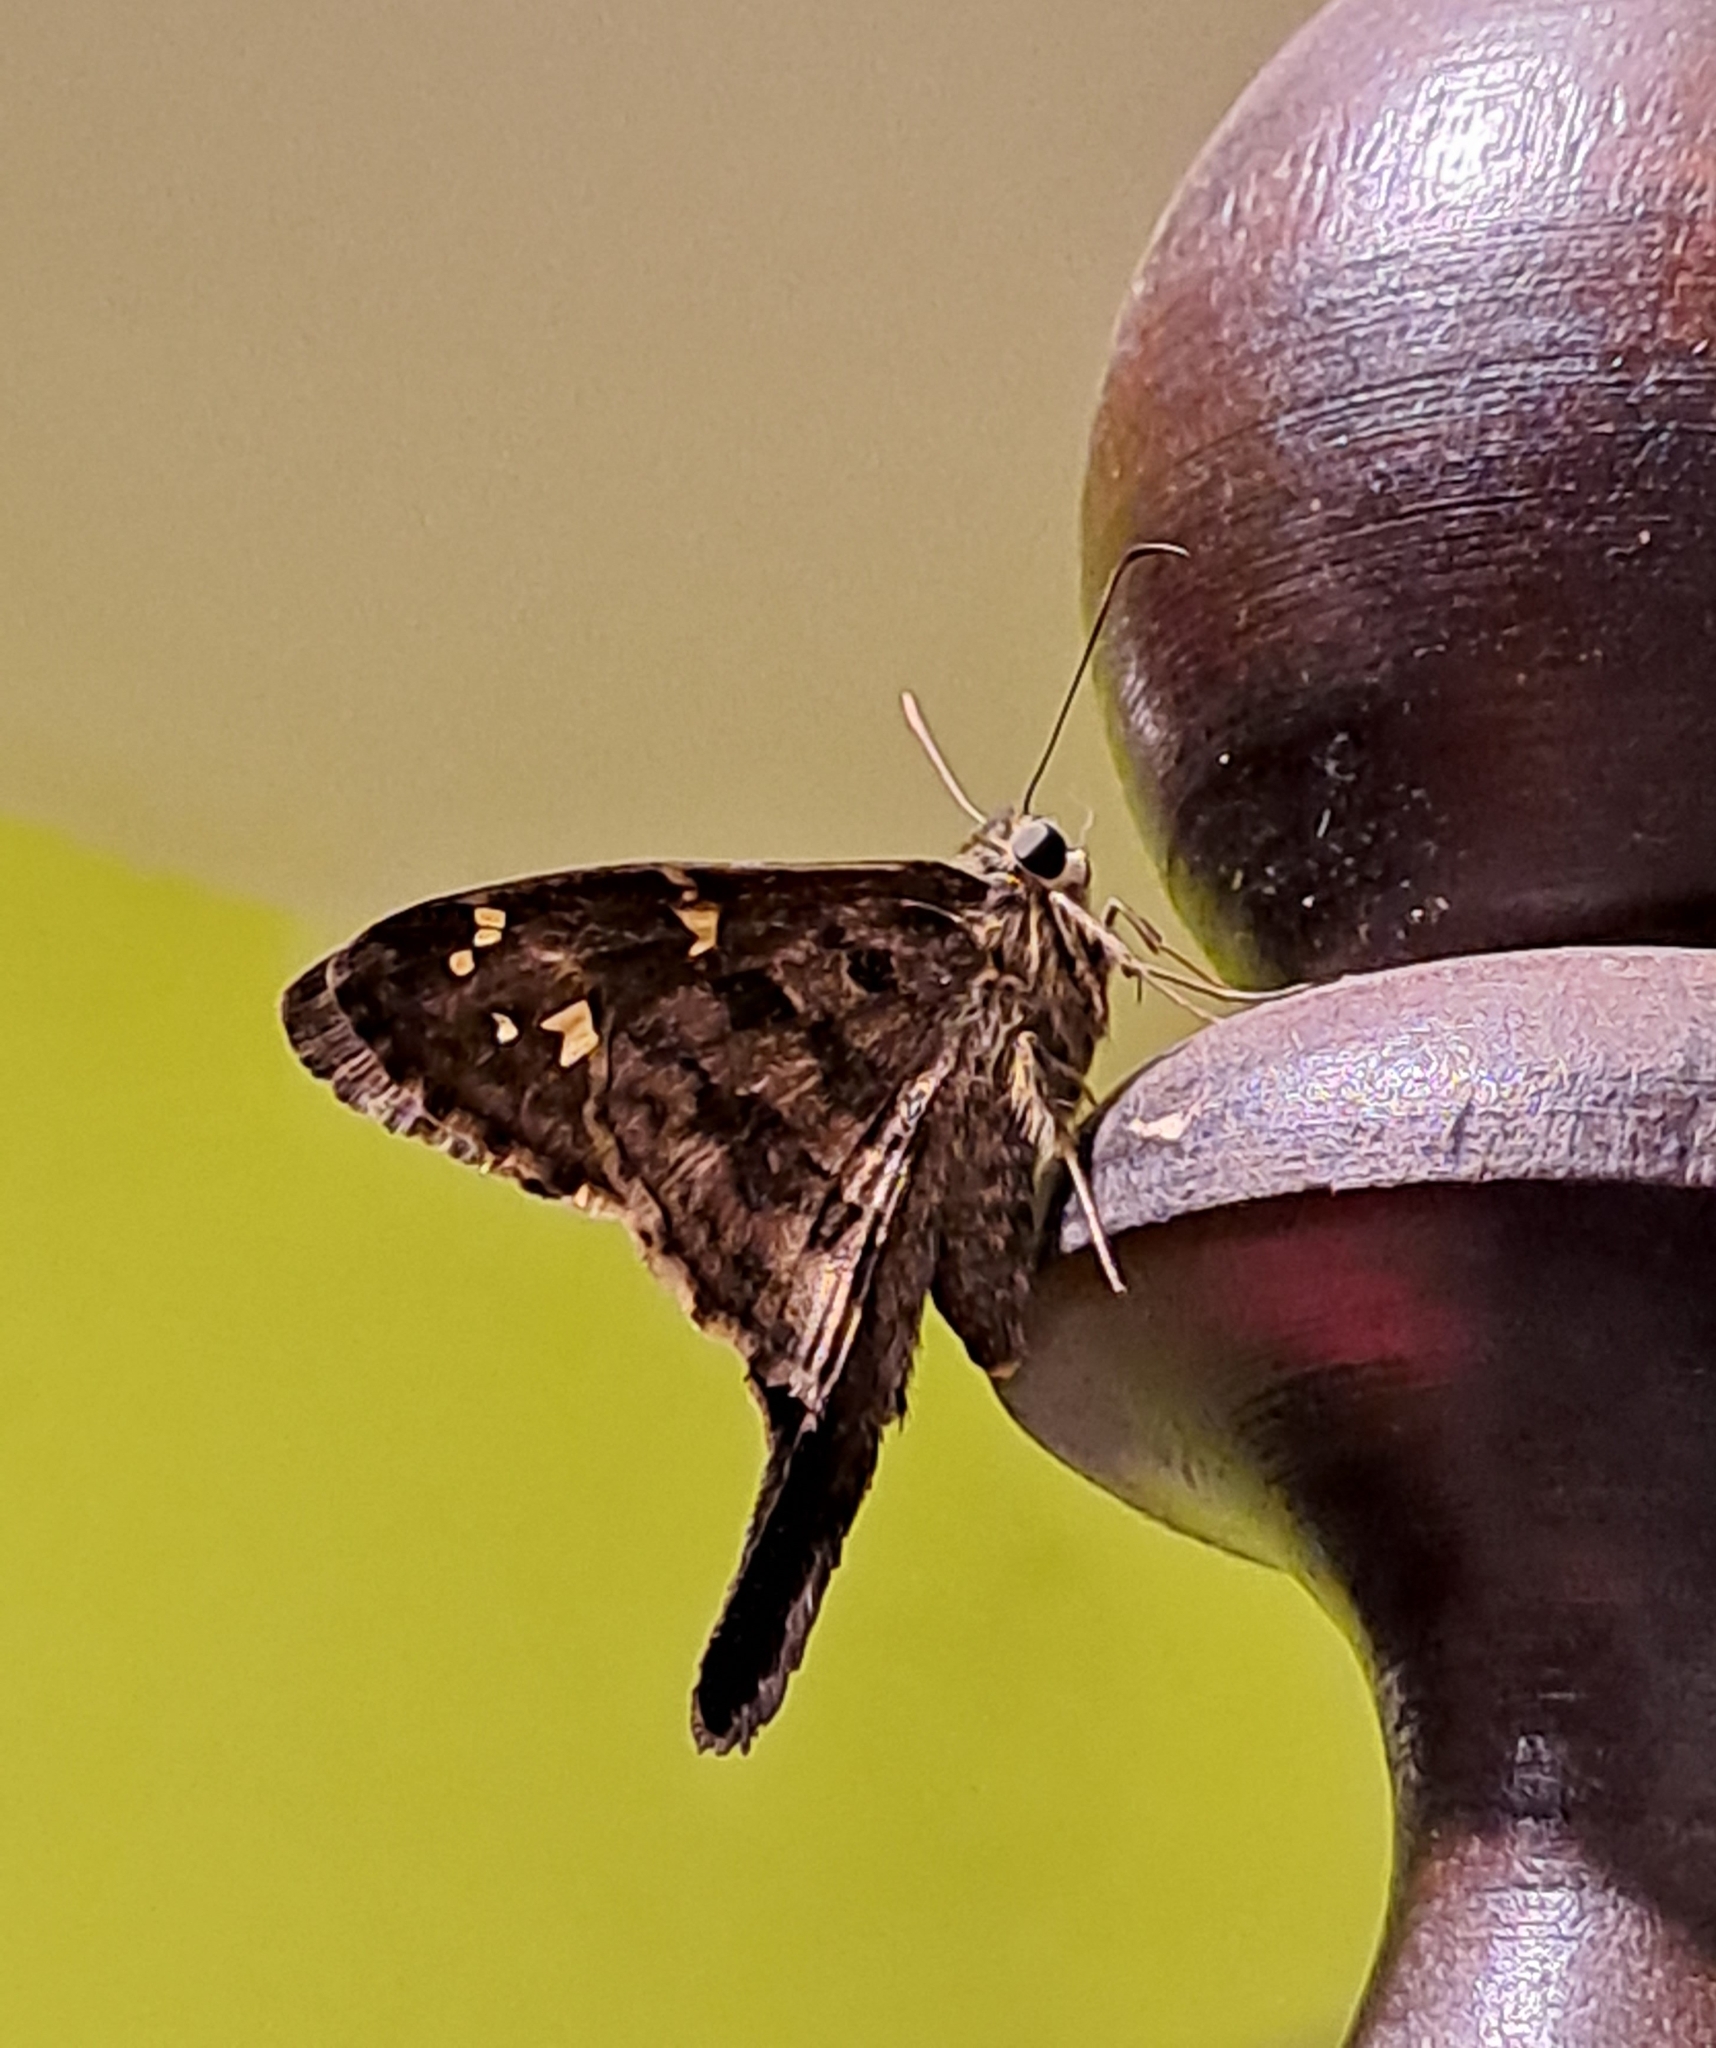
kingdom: Animalia
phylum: Arthropoda
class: Insecta
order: Lepidoptera
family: Hesperiidae
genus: Thorybes
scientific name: Thorybes
